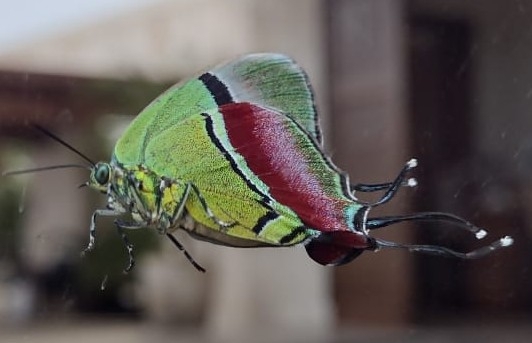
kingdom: Animalia
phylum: Arthropoda
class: Insecta
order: Lepidoptera
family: Lycaenidae
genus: Evenus
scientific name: Evenus regalis
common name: Regal hairstreak
